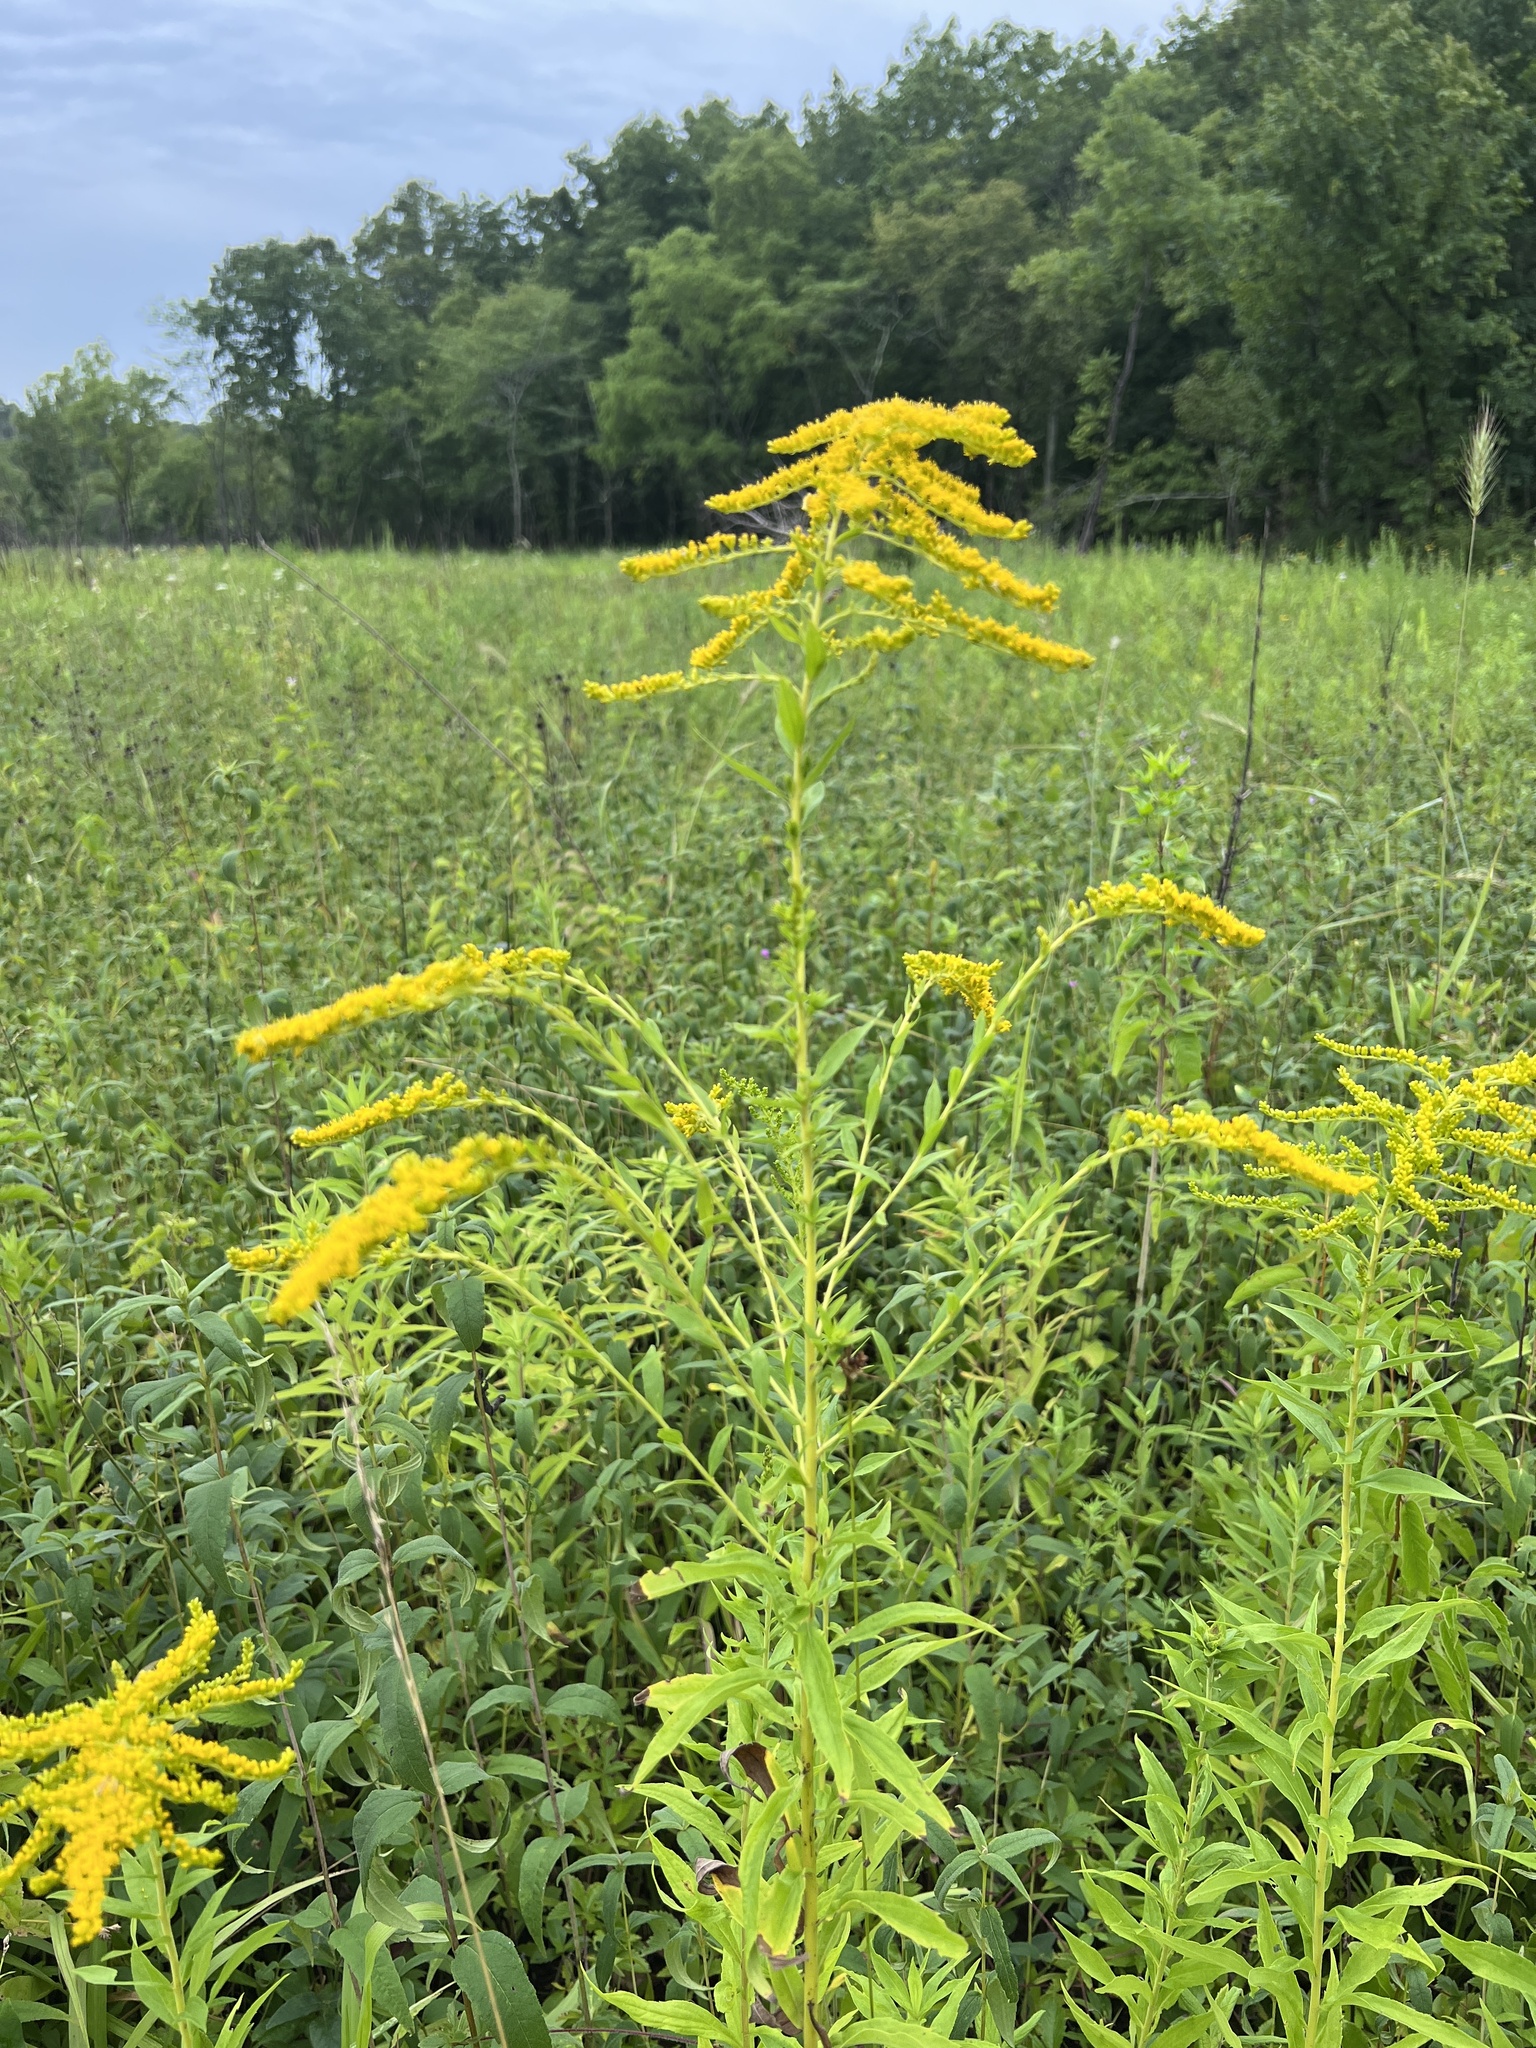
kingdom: Plantae
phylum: Tracheophyta
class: Magnoliopsida
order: Asterales
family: Asteraceae
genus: Solidago
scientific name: Solidago canadensis
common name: Canada goldenrod
